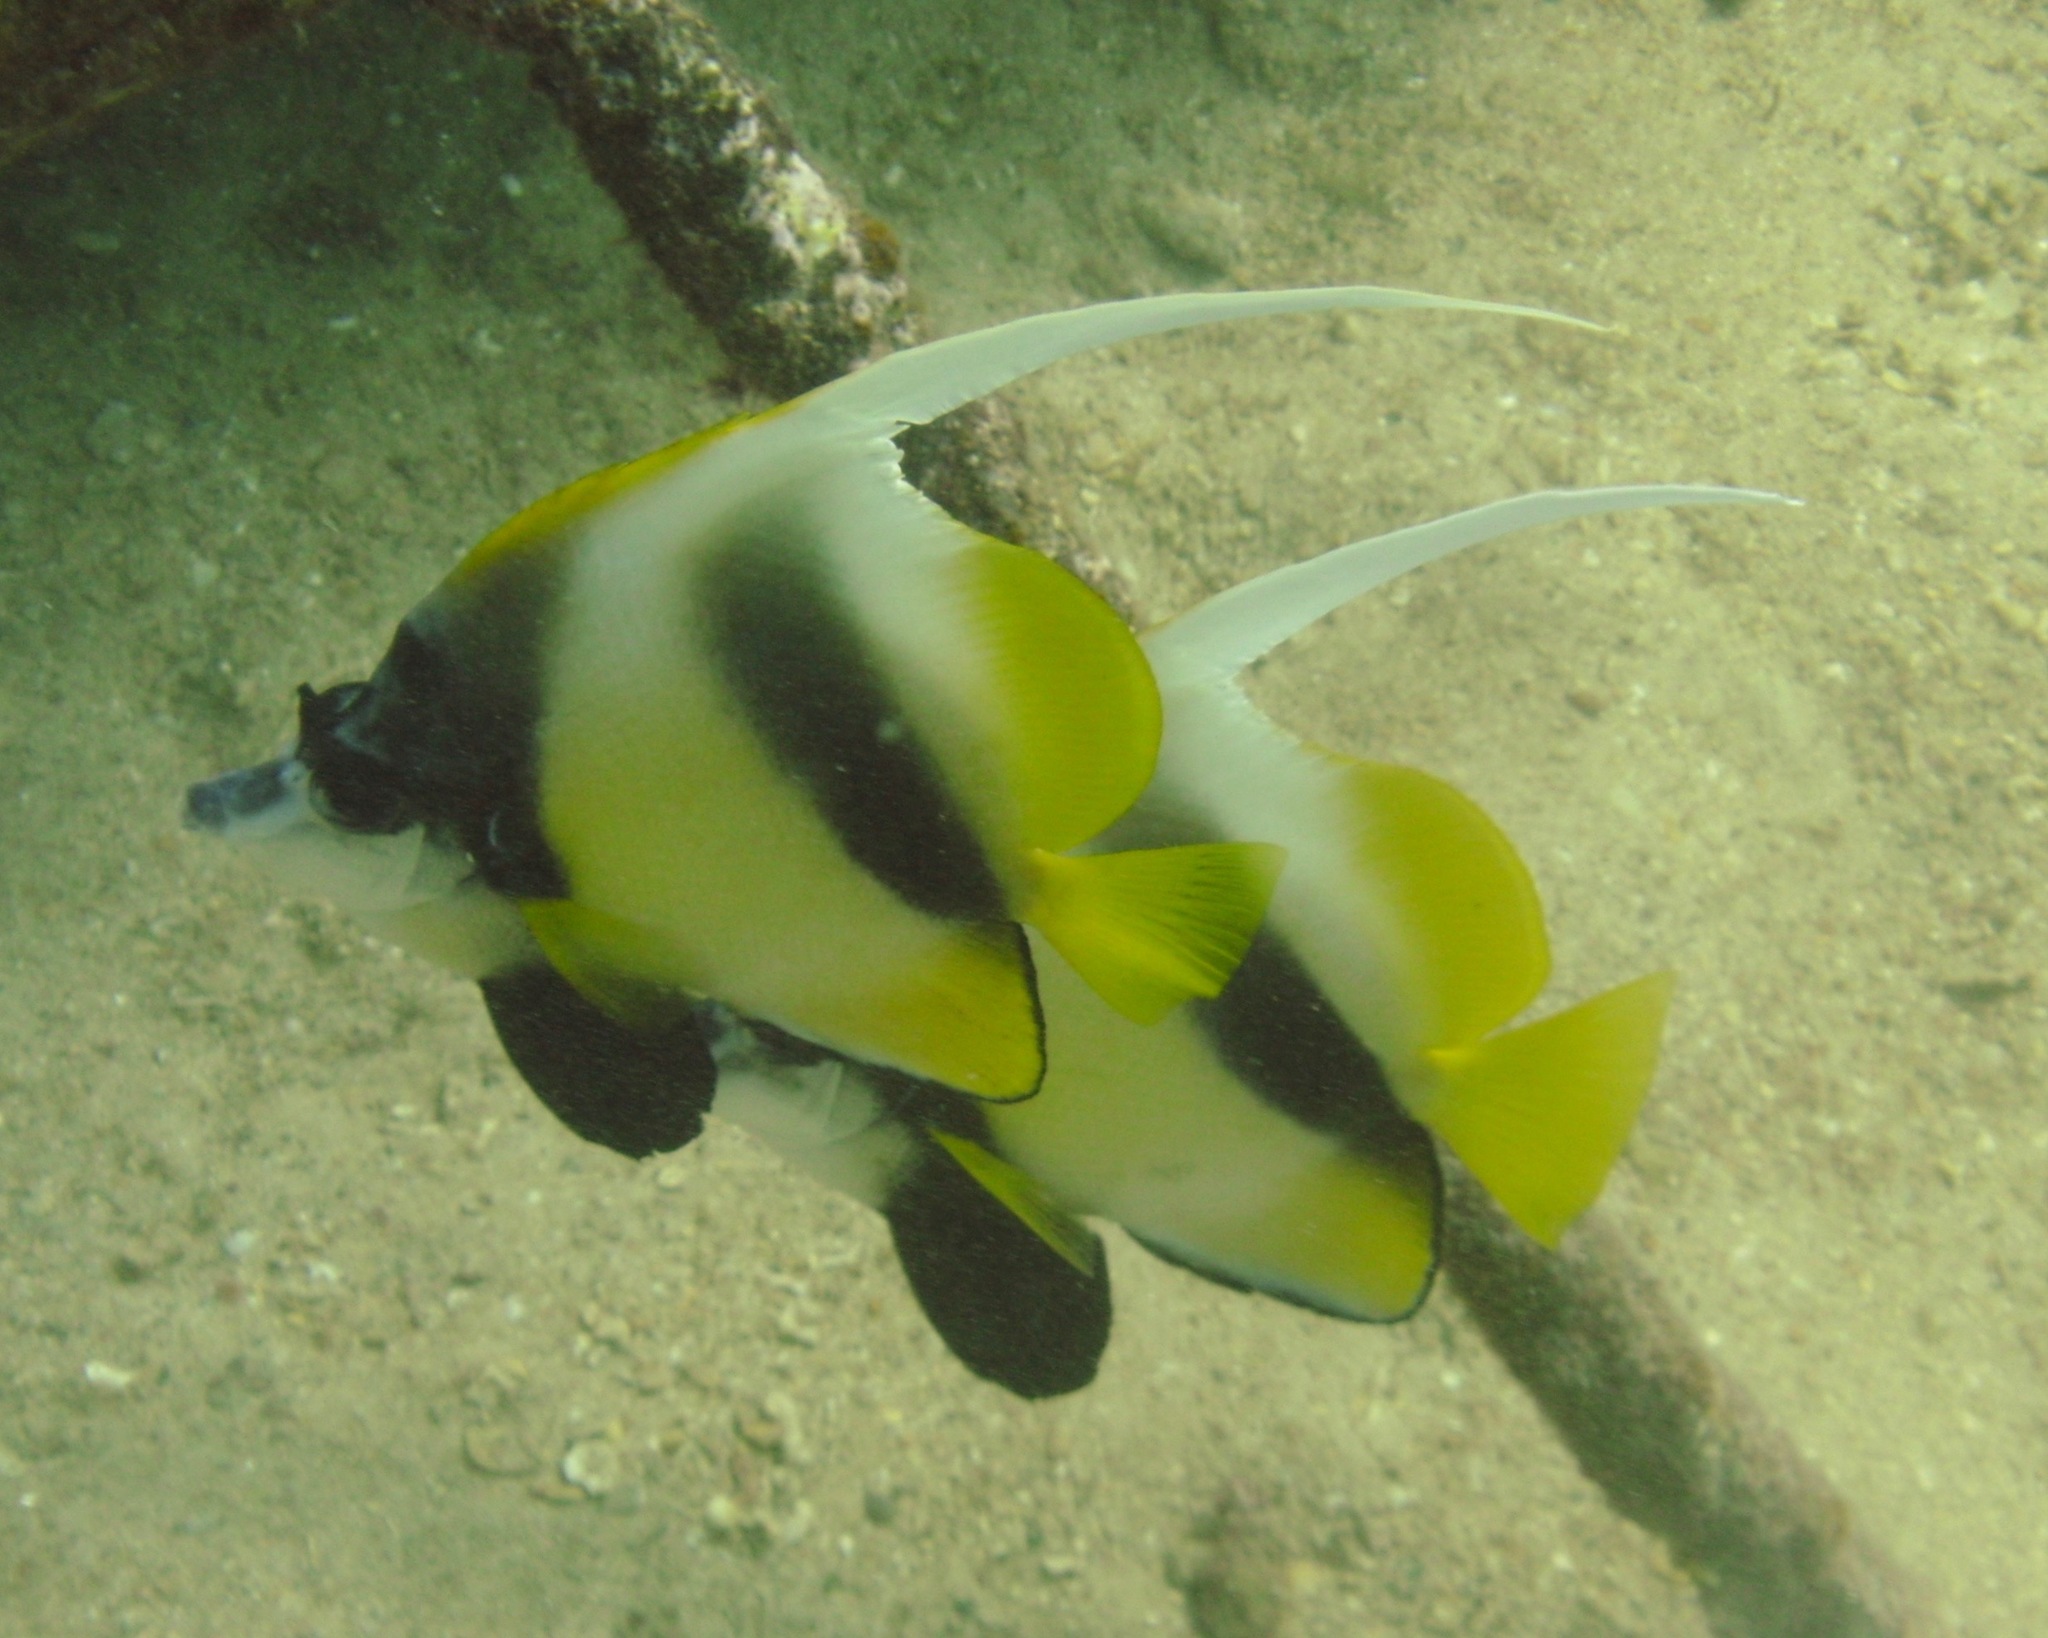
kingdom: Animalia
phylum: Chordata
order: Perciformes
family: Chaetodontidae
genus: Heniochus
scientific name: Heniochus intermedius
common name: Red sea bannerfish
